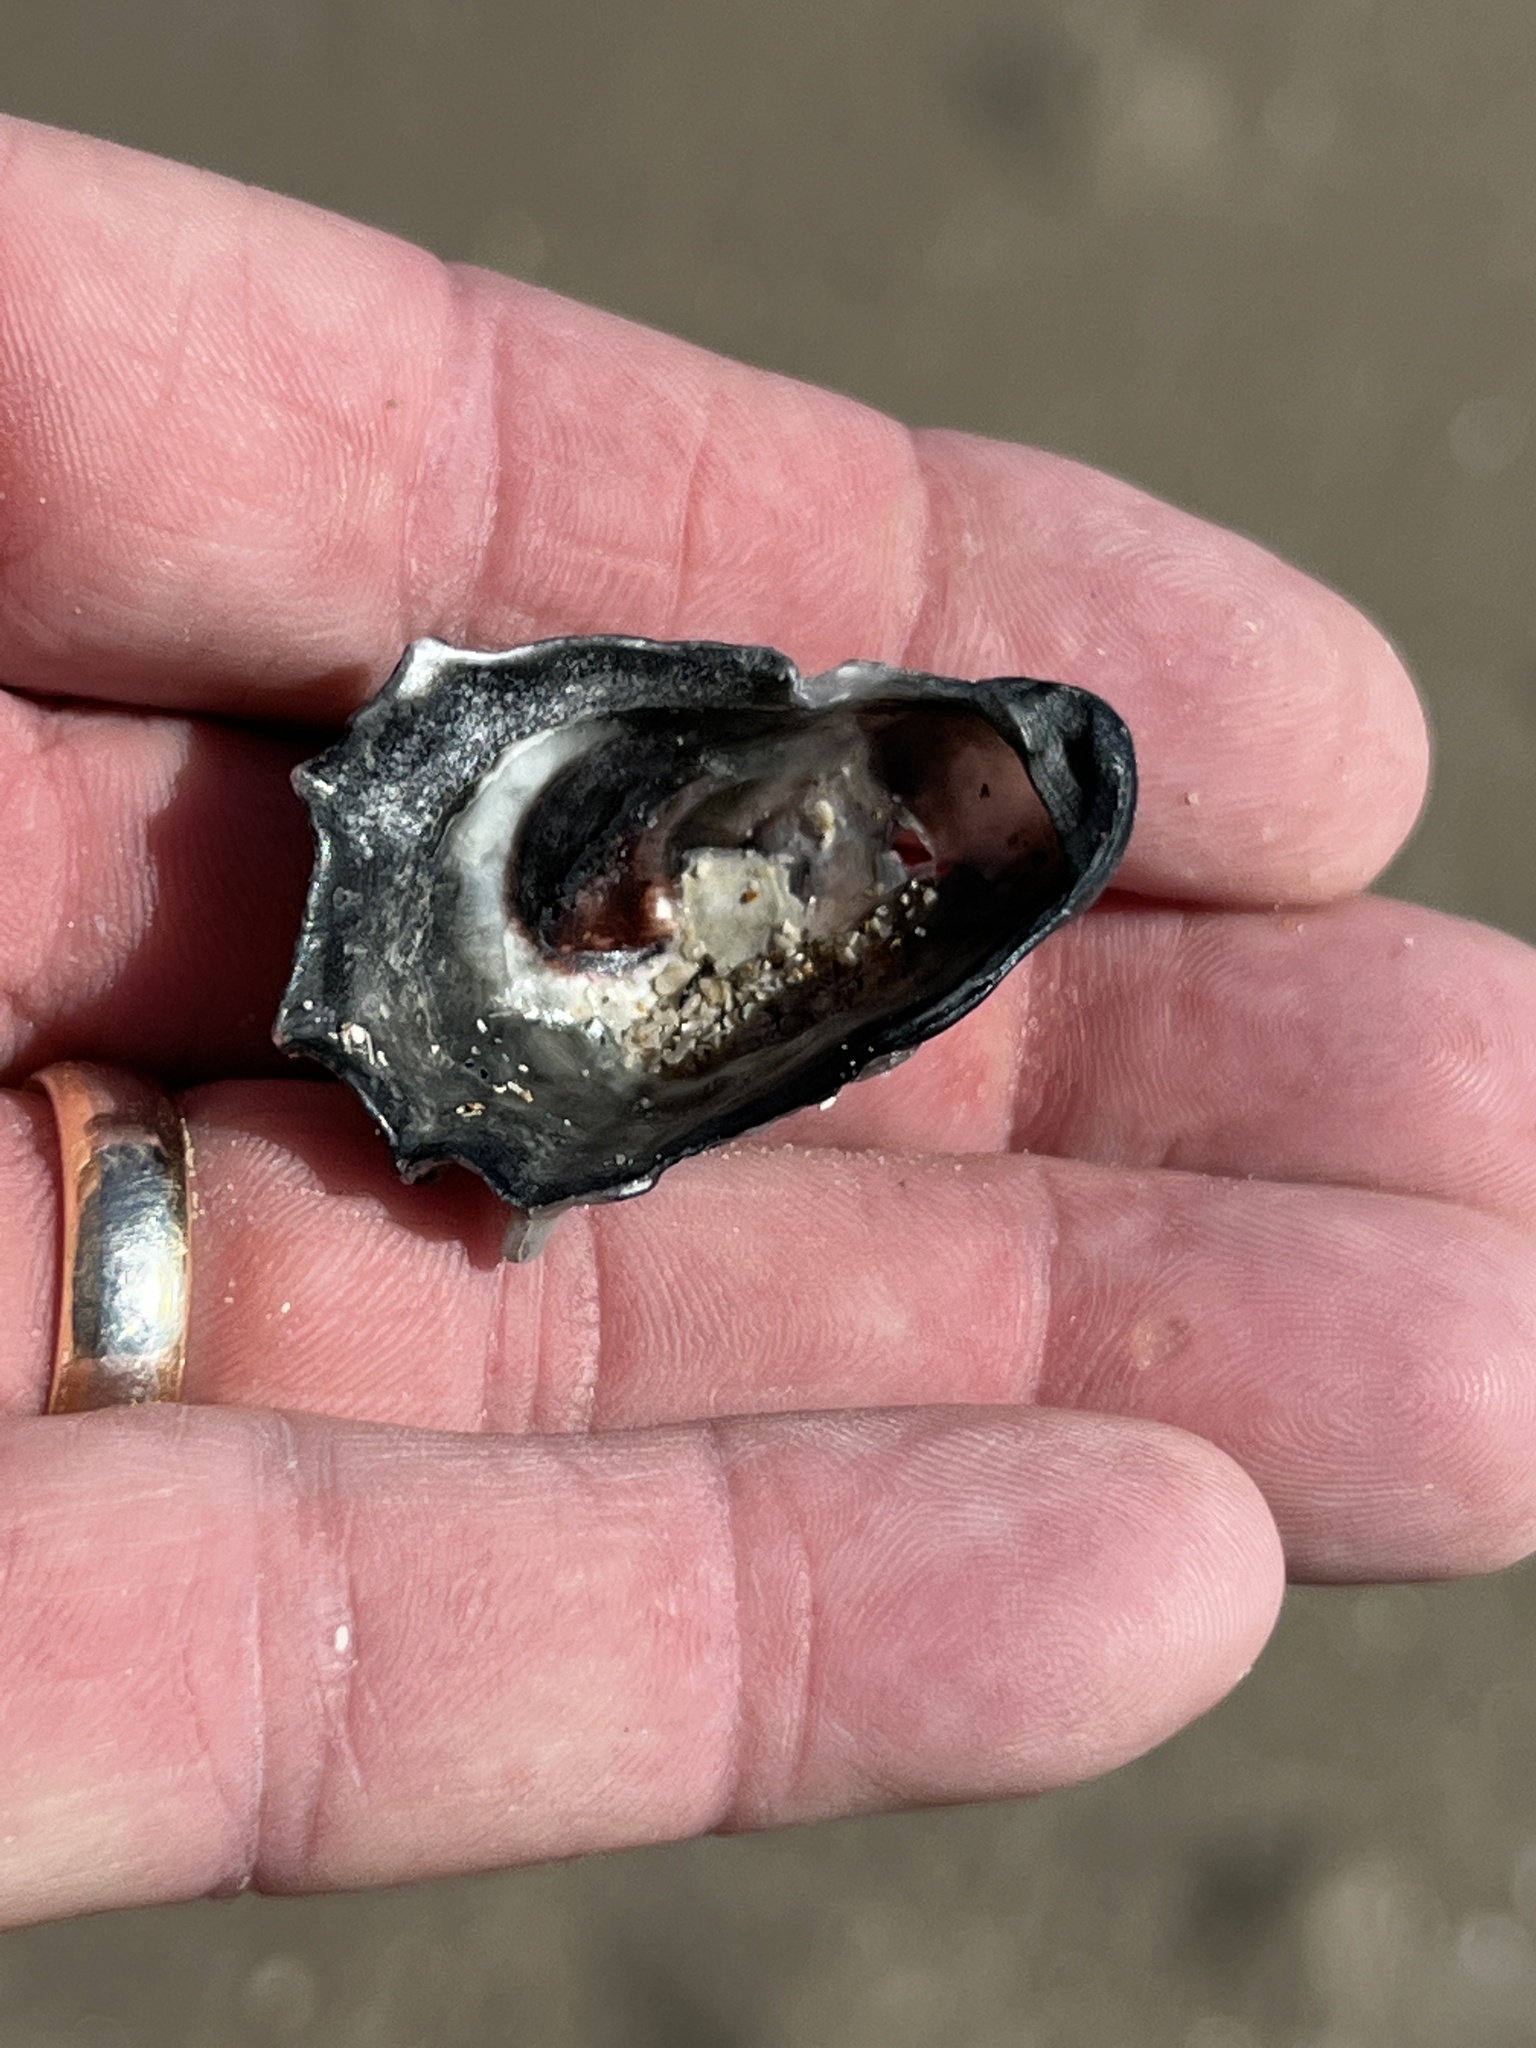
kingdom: Animalia
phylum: Mollusca
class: Bivalvia
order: Ostreida
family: Ostreidae
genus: Crassostrea
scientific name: Crassostrea virginica
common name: American oyster
